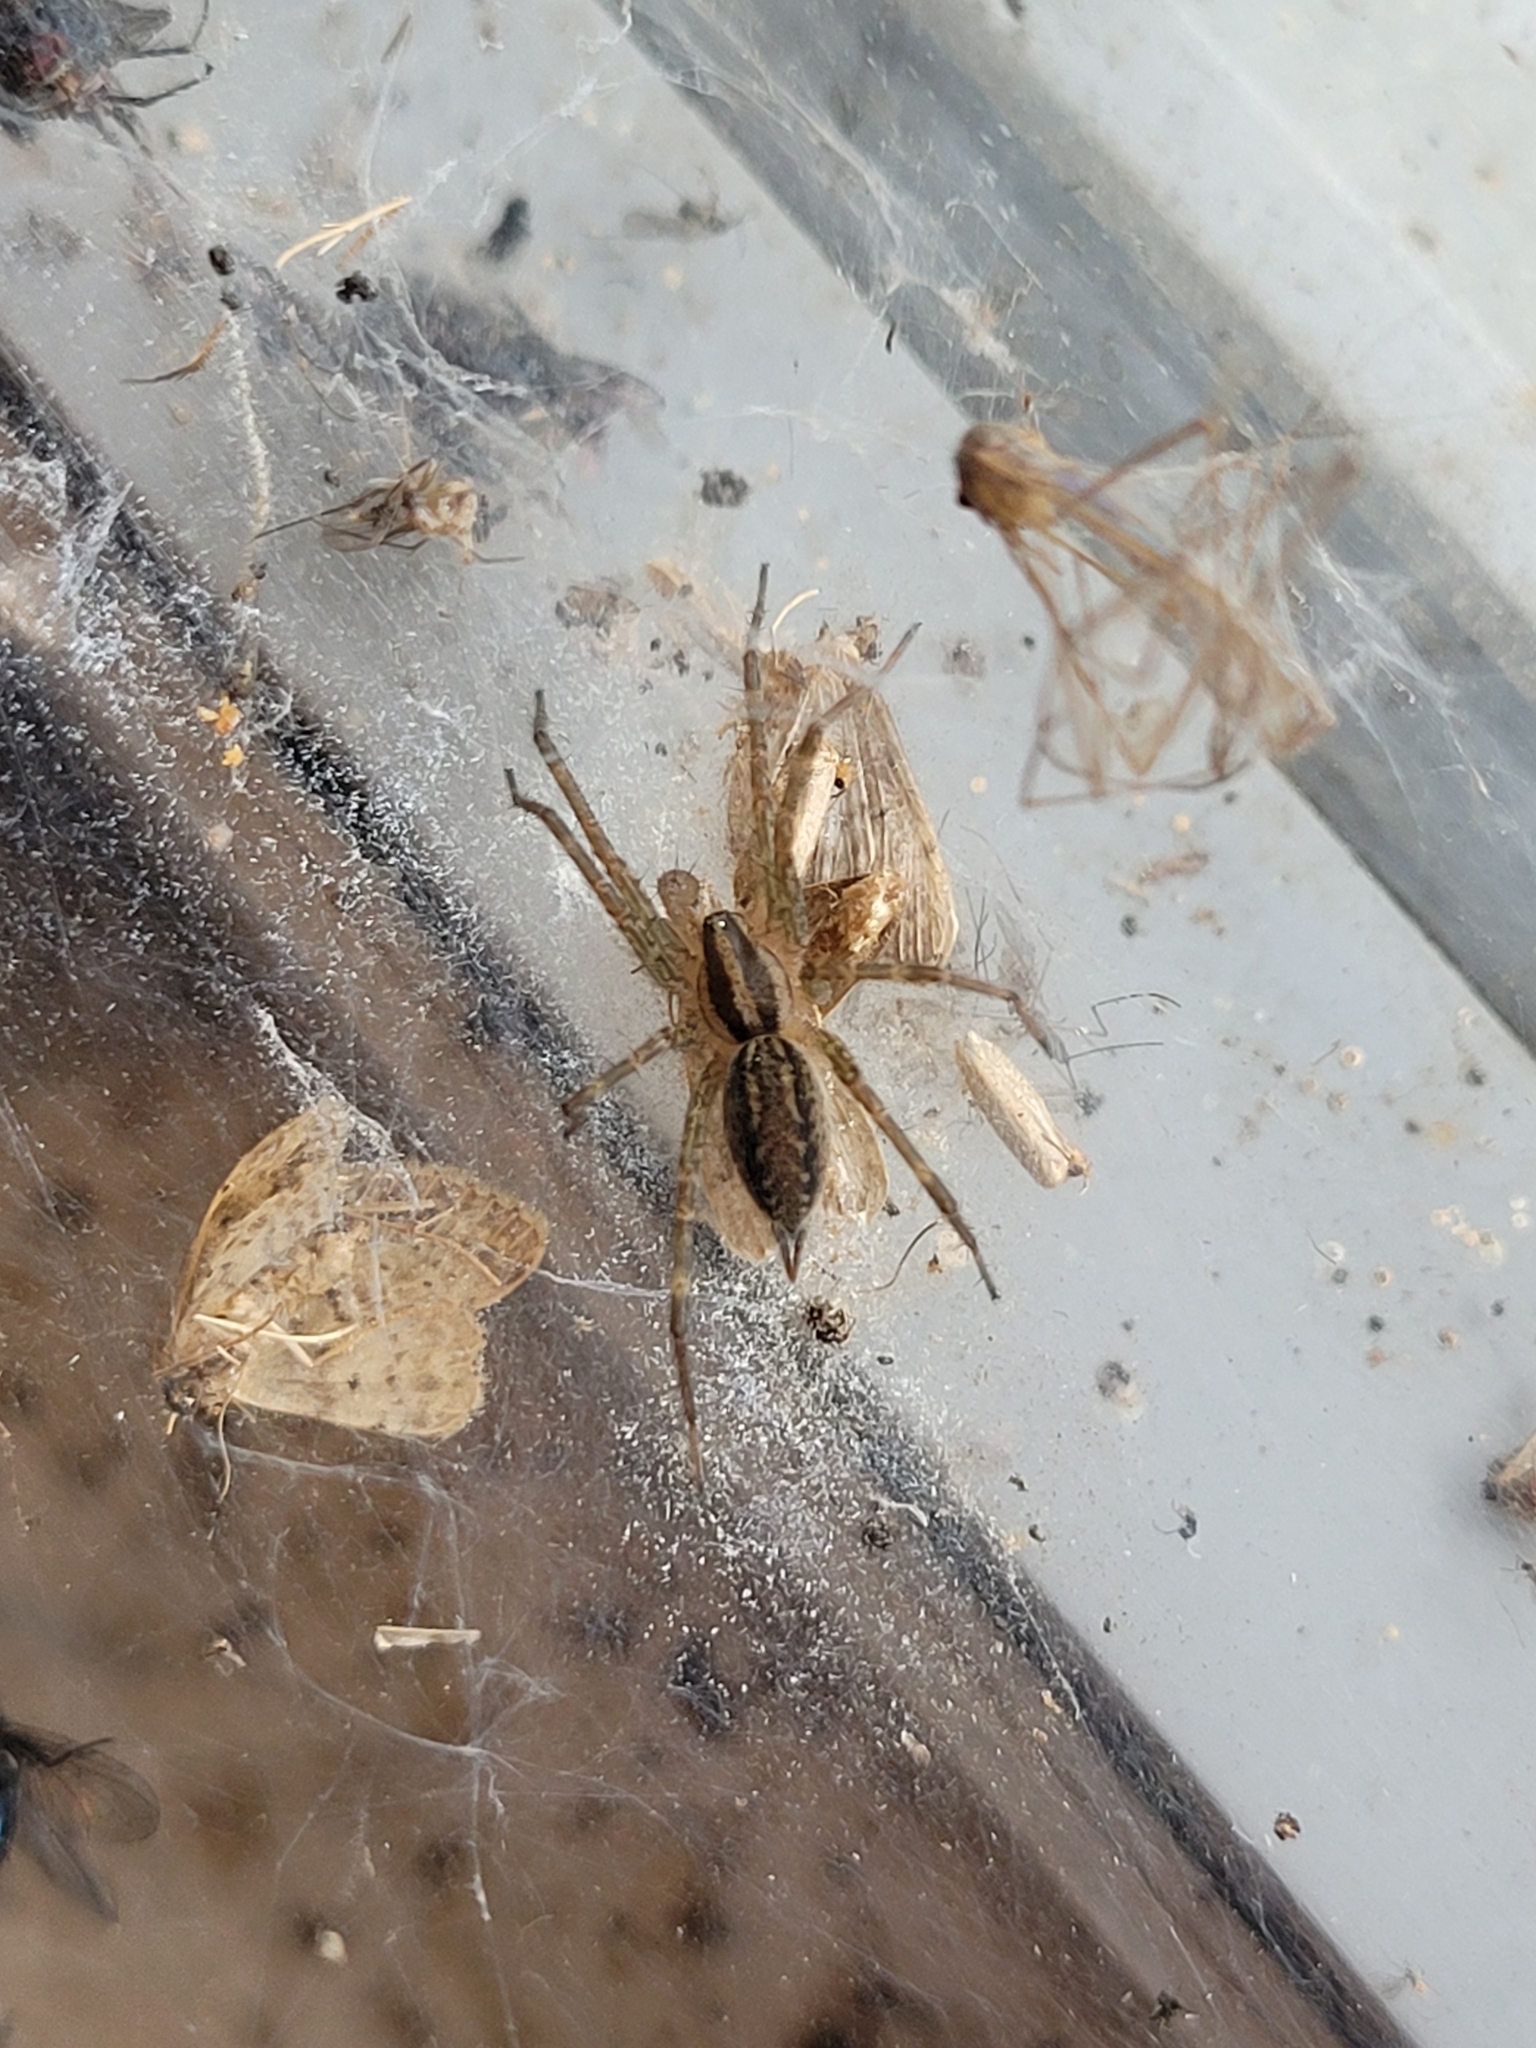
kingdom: Animalia
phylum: Arthropoda
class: Arachnida
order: Araneae
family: Agelenidae
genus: Agelenopsis
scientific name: Agelenopsis
